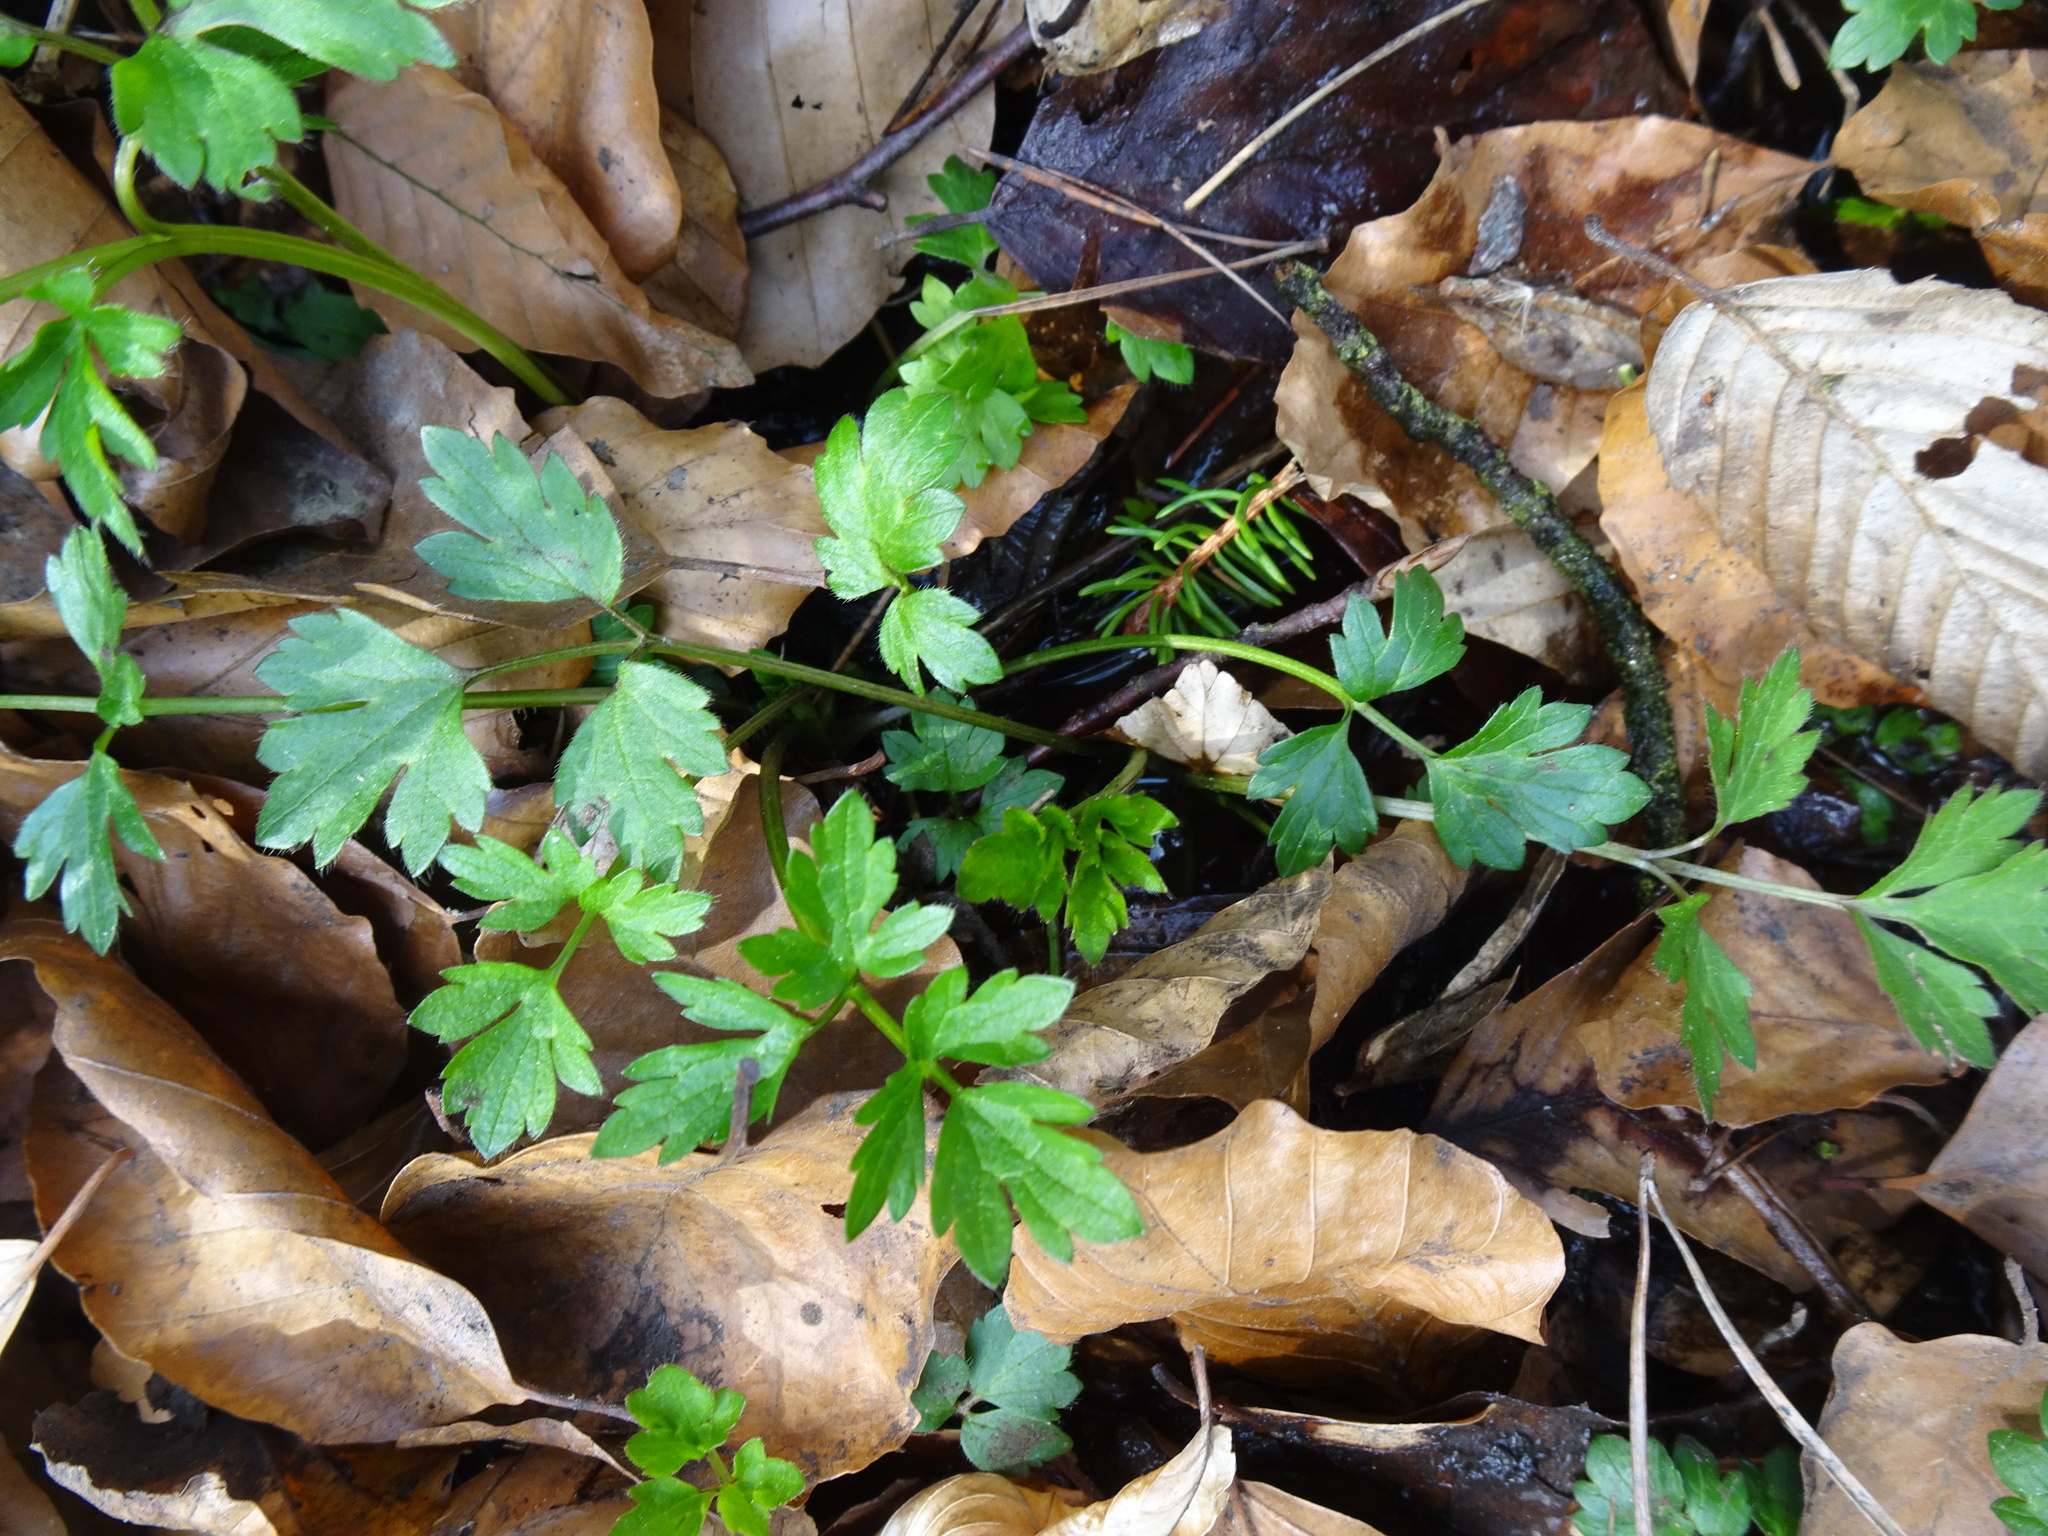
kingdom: Plantae
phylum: Tracheophyta
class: Magnoliopsida
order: Ranunculales
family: Ranunculaceae
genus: Ranunculus
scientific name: Ranunculus repens
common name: Creeping buttercup
